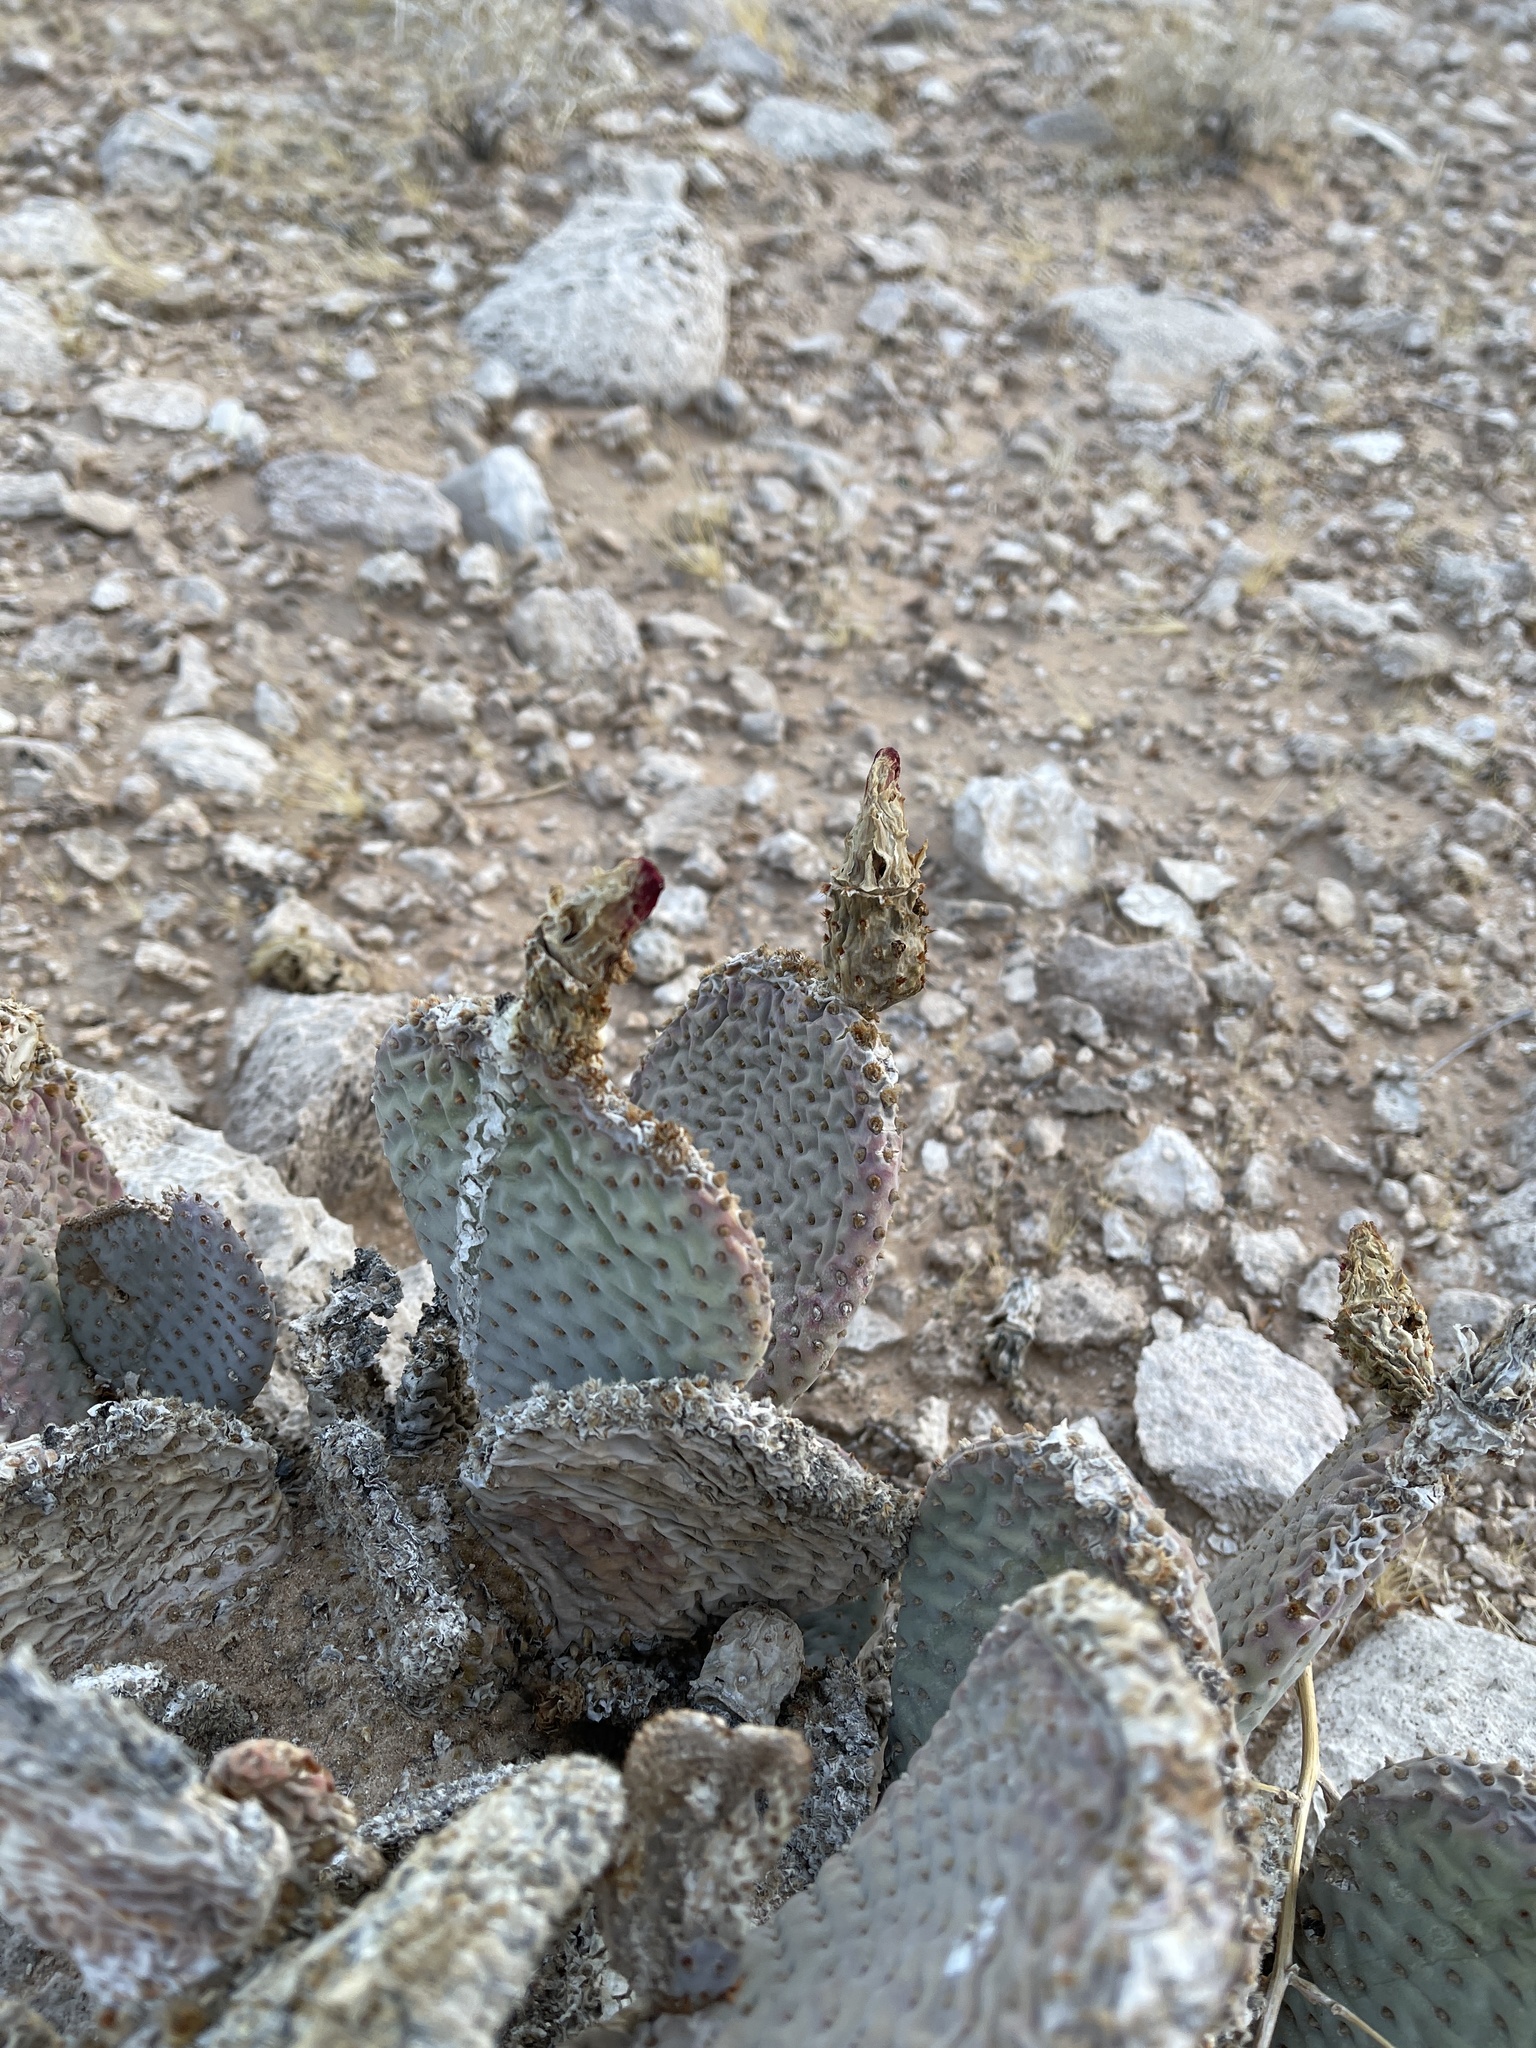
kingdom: Plantae
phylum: Tracheophyta
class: Magnoliopsida
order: Caryophyllales
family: Cactaceae
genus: Opuntia
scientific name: Opuntia basilaris
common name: Beavertail prickly-pear
